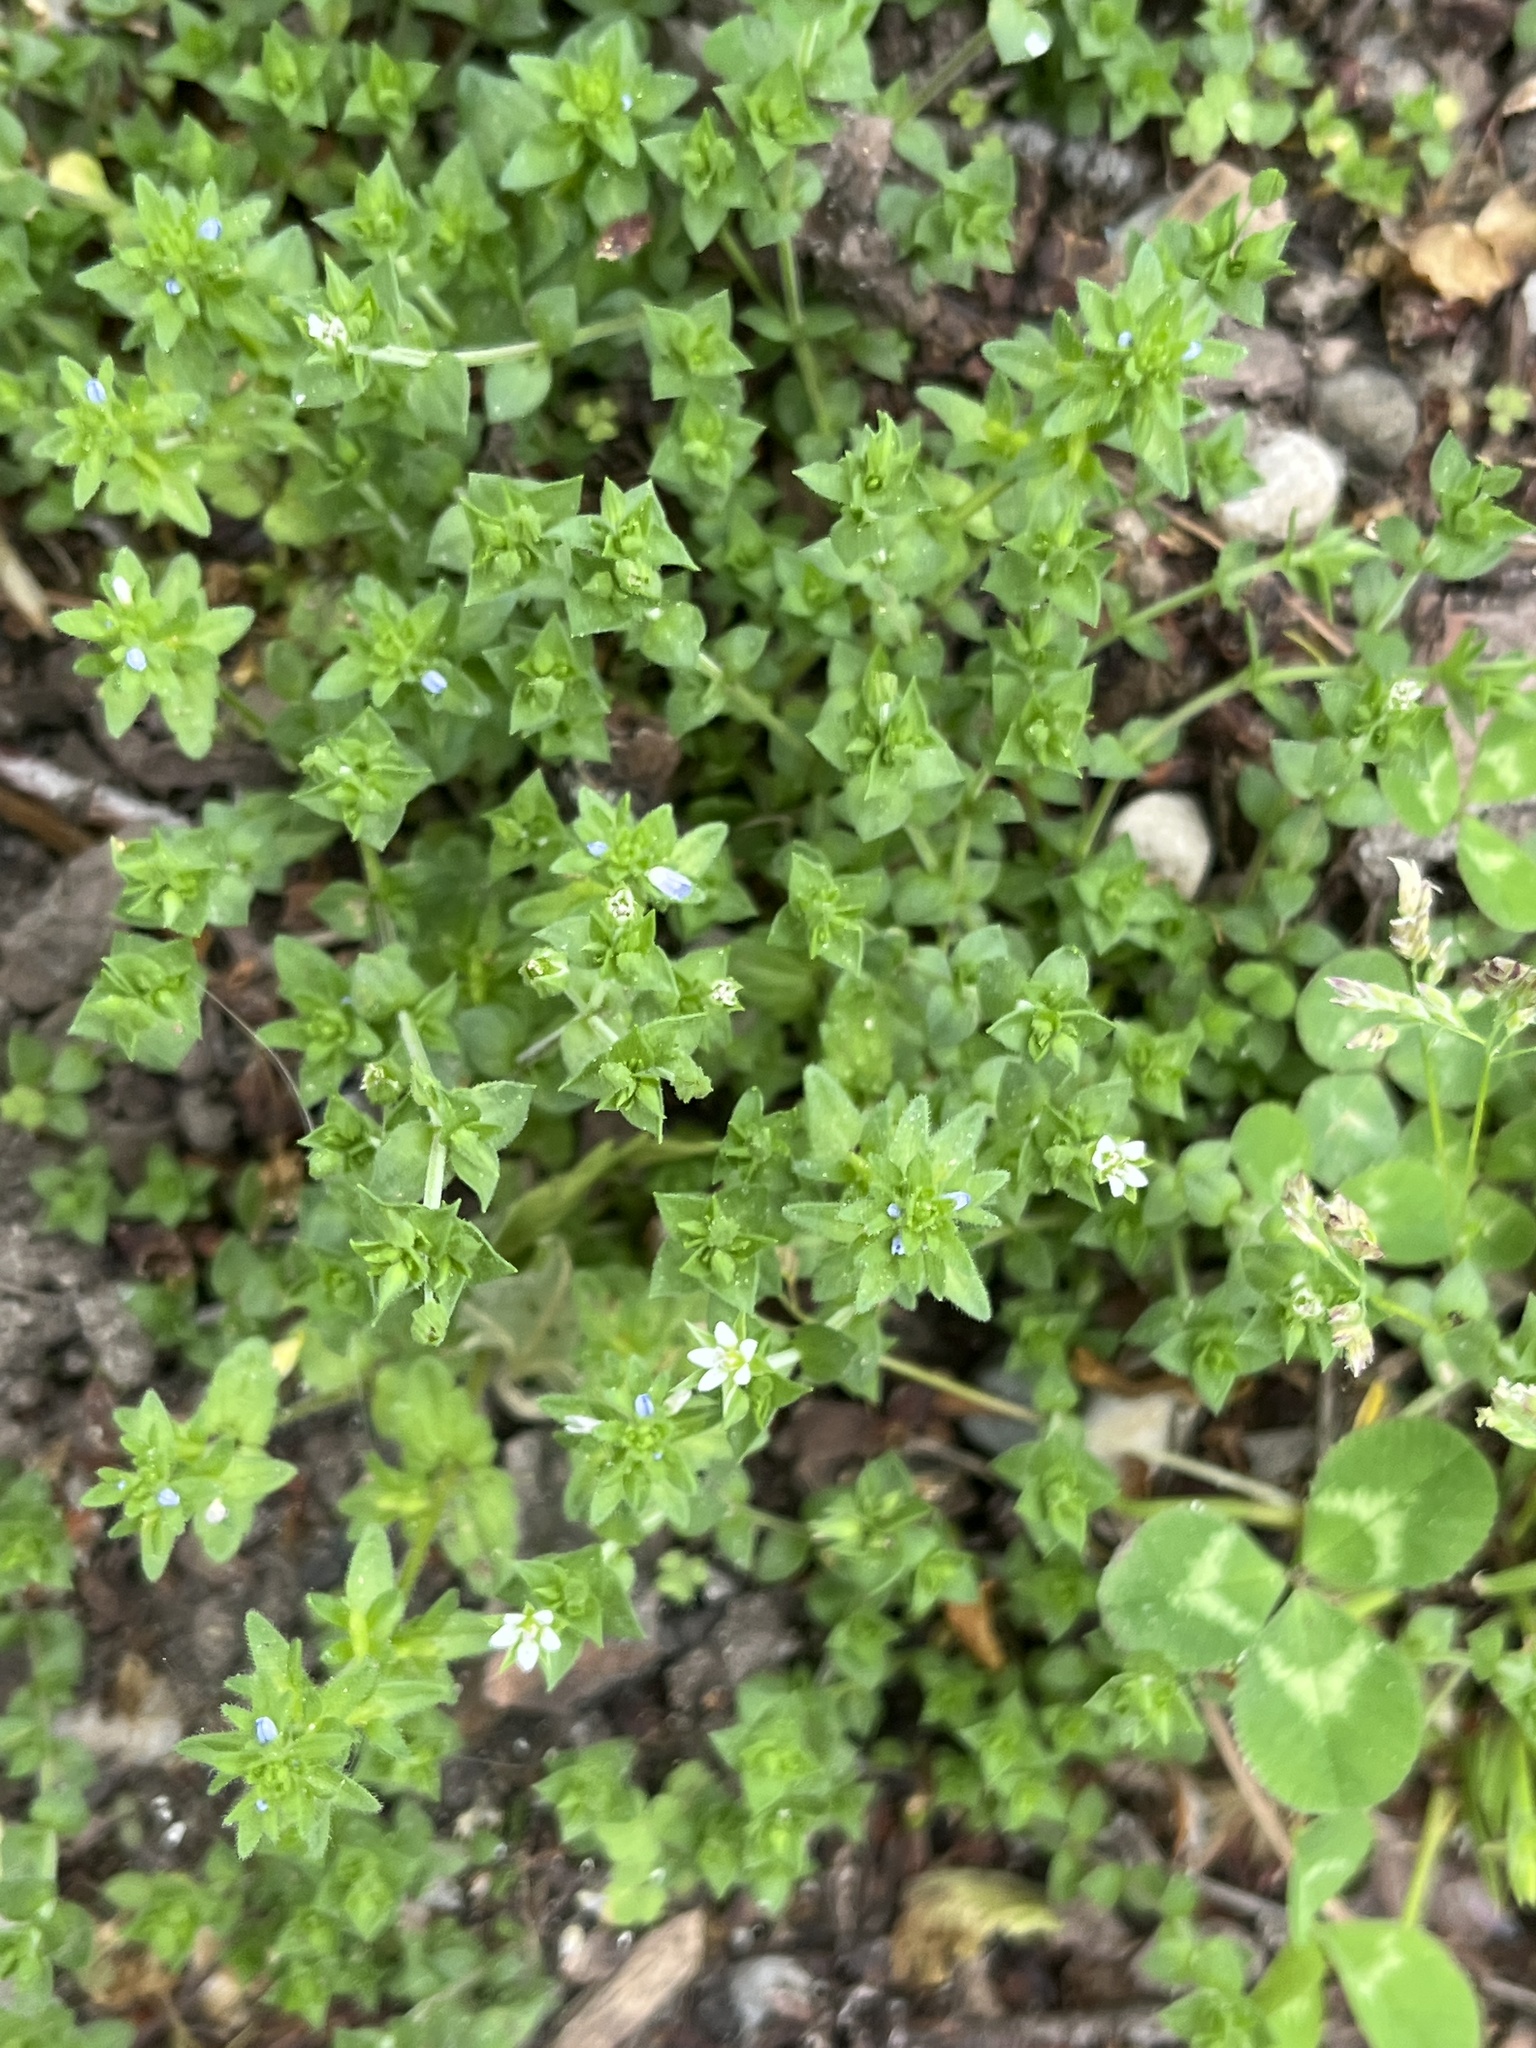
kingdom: Plantae
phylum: Tracheophyta
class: Magnoliopsida
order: Caryophyllales
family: Caryophyllaceae
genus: Arenaria
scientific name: Arenaria serpyllifolia
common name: Thyme-leaved sandwort
